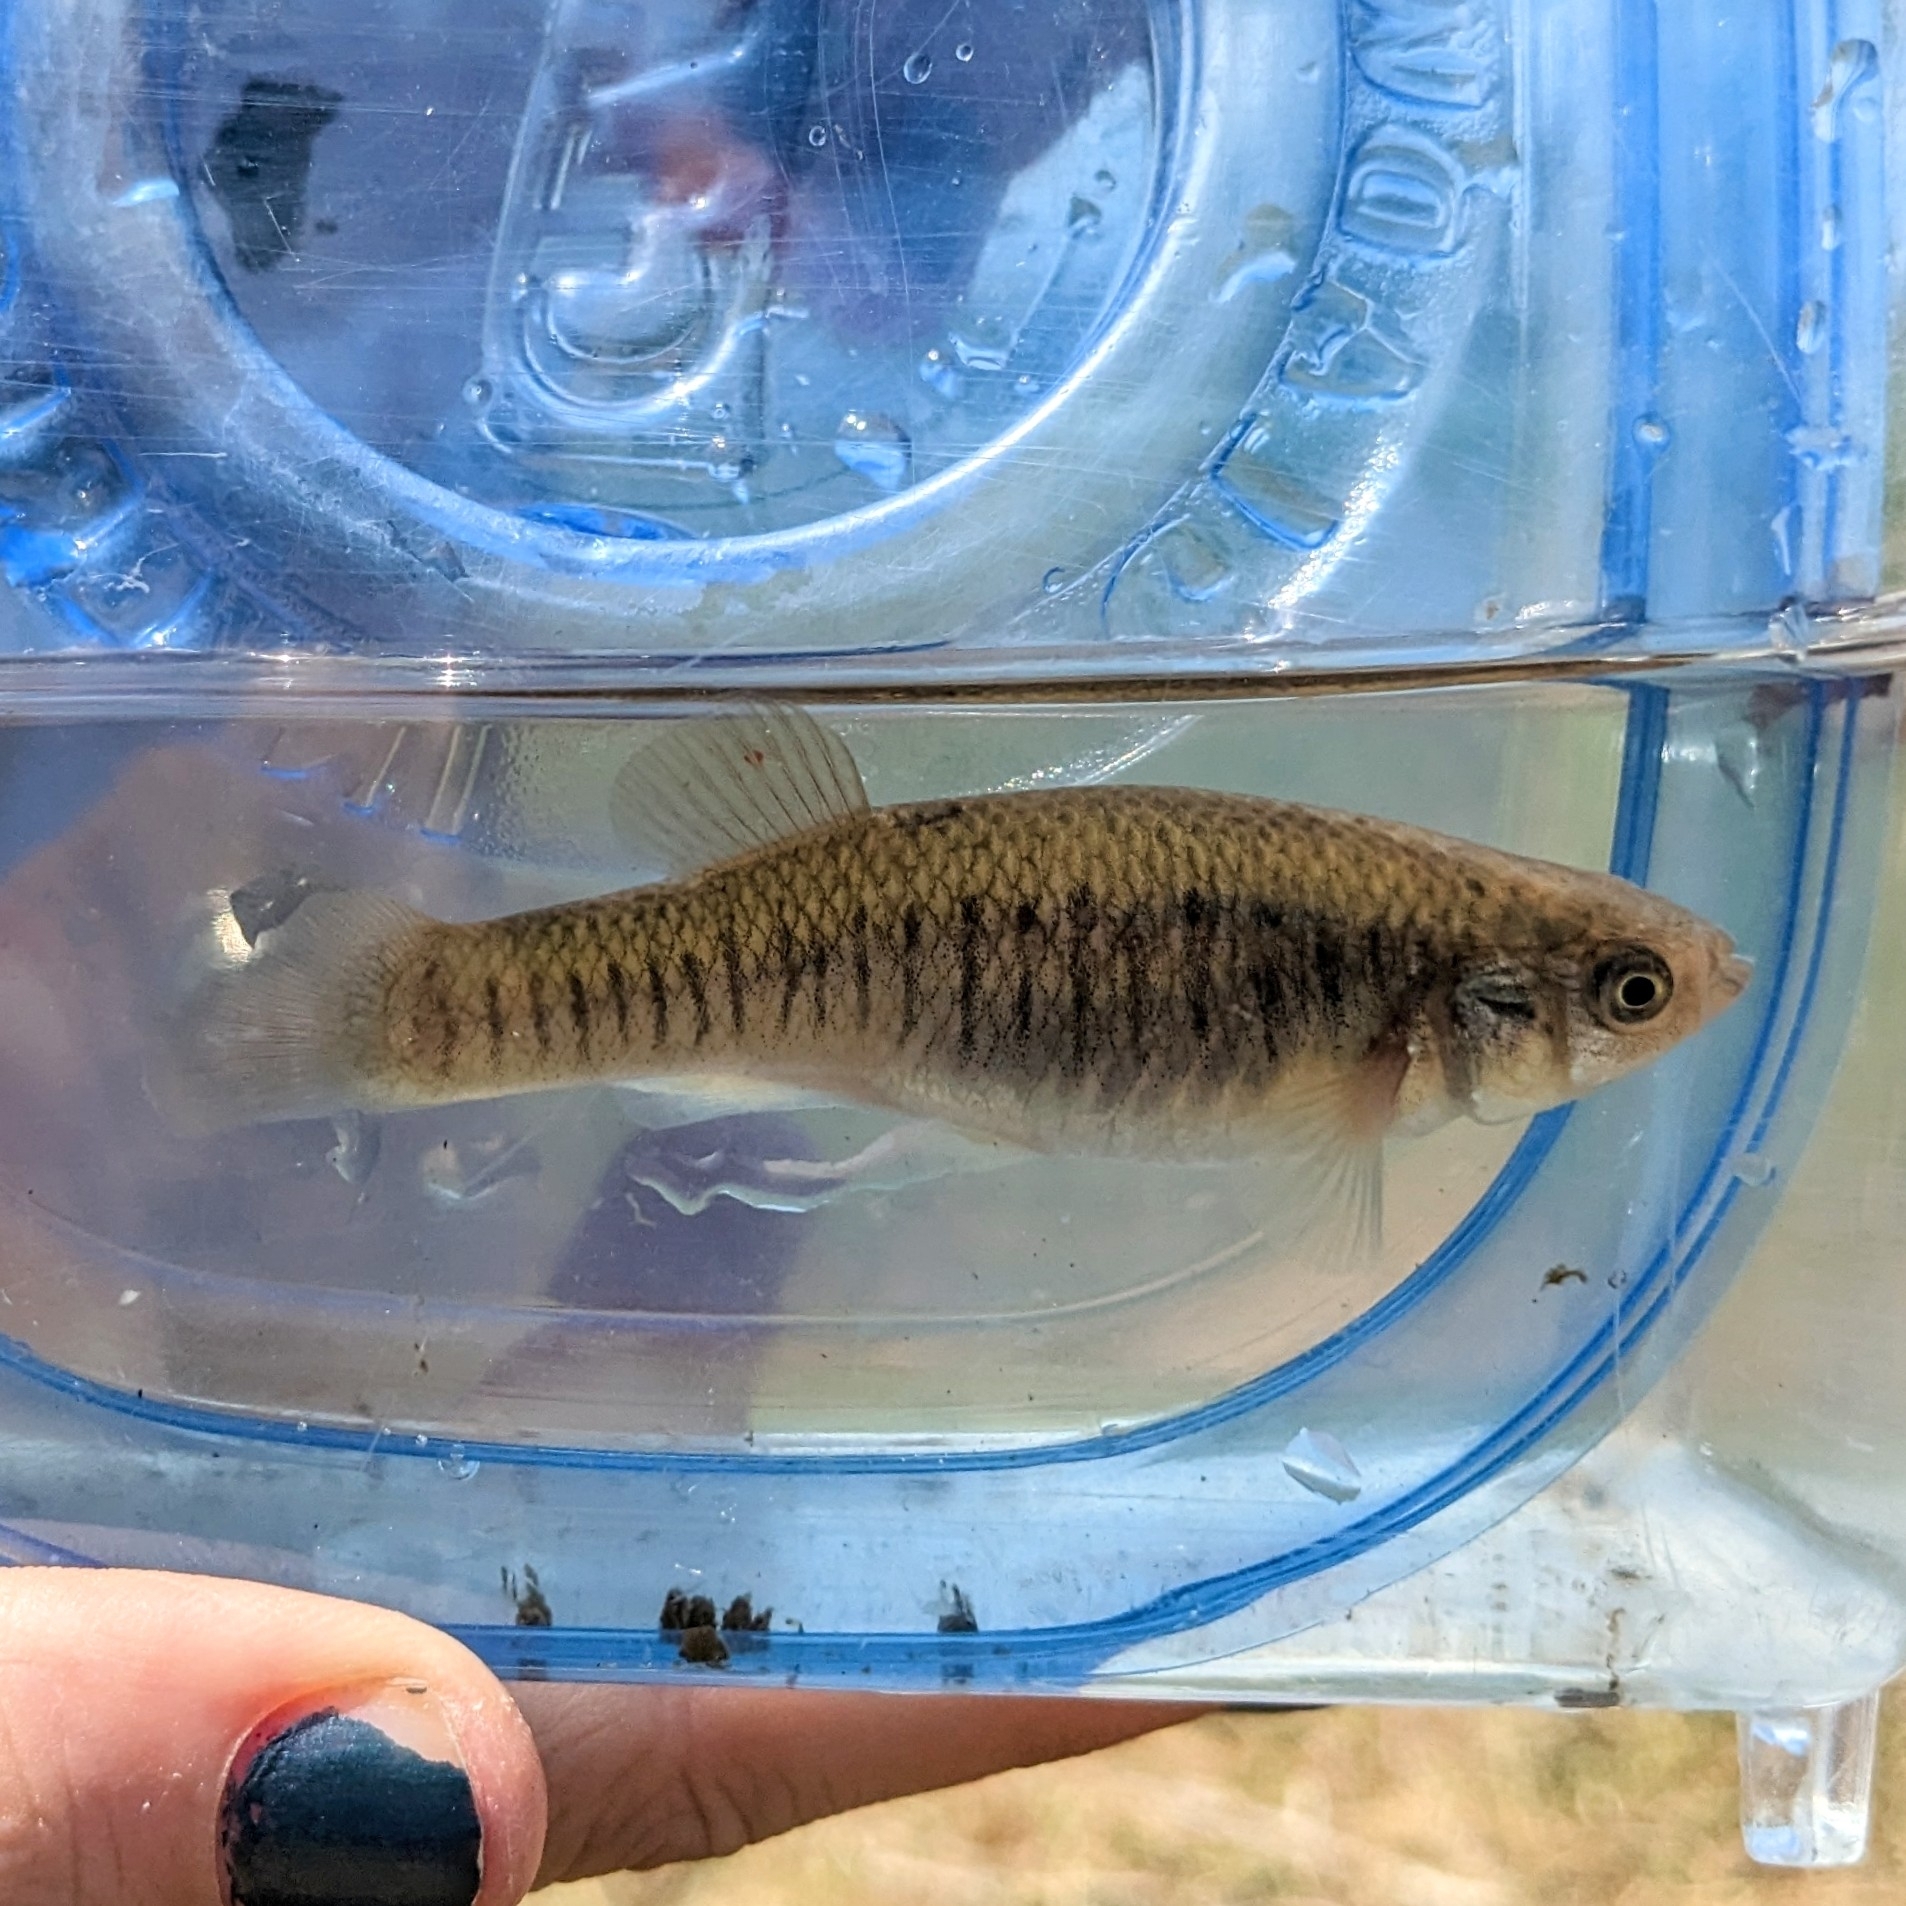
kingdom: Animalia
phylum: Chordata
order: Cyprinodontiformes
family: Fundulidae
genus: Fundulus
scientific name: Fundulus heteroclitus
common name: Mummichog
